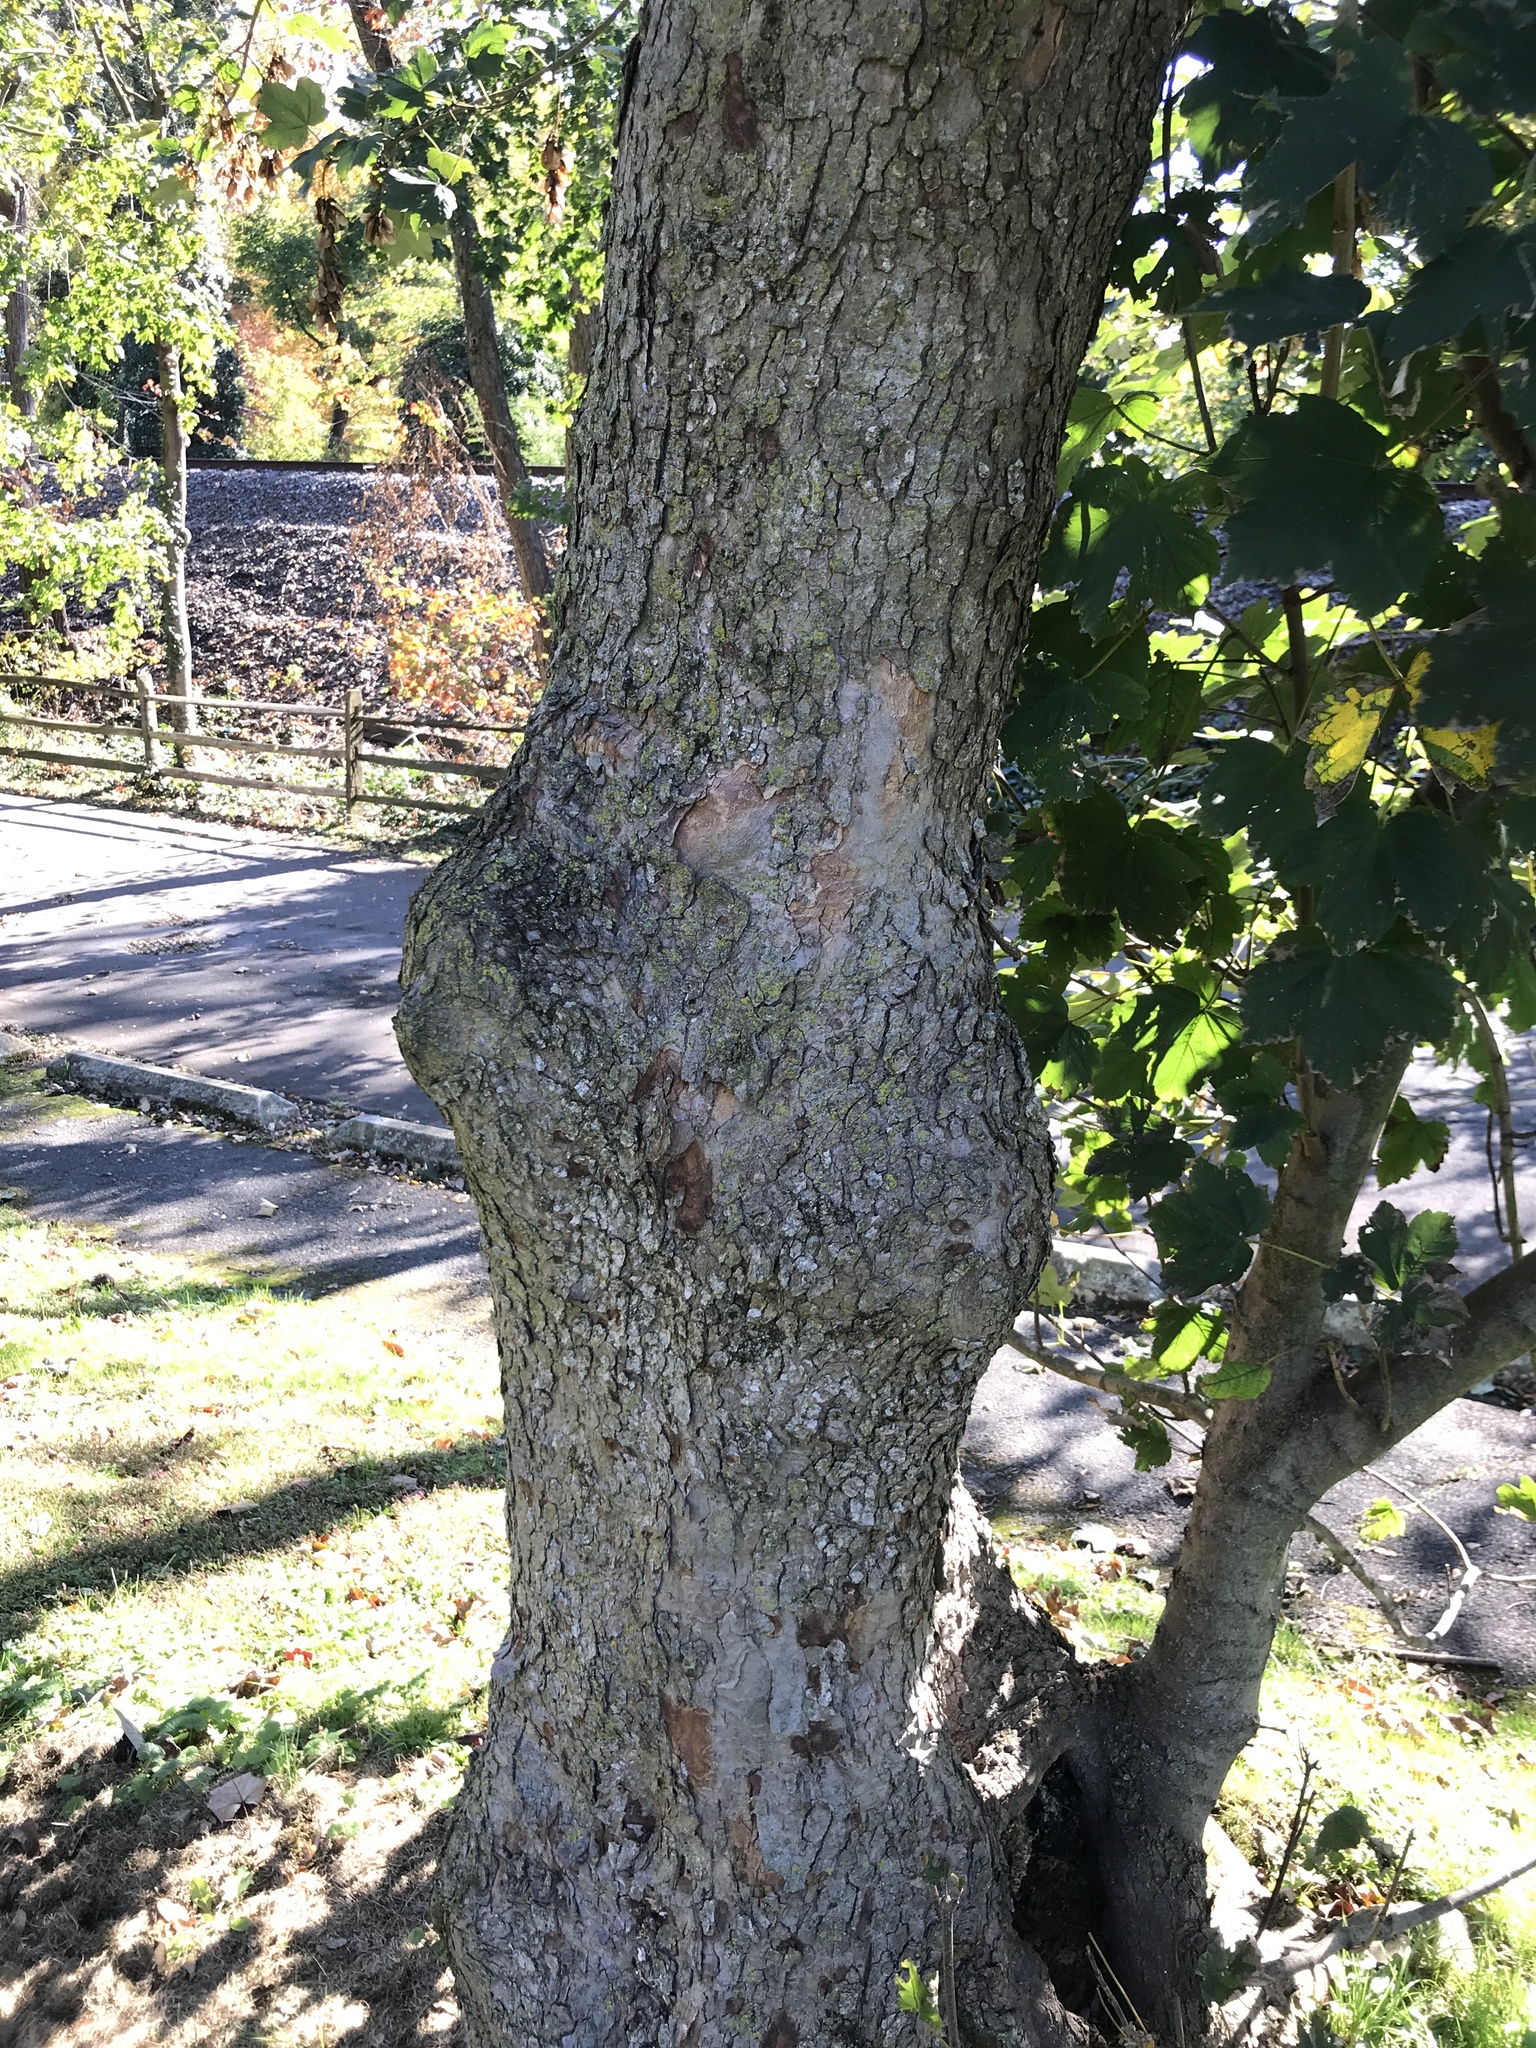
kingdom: Plantae
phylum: Tracheophyta
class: Magnoliopsida
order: Sapindales
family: Sapindaceae
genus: Acer
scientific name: Acer pseudoplatanus
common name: Sycamore
